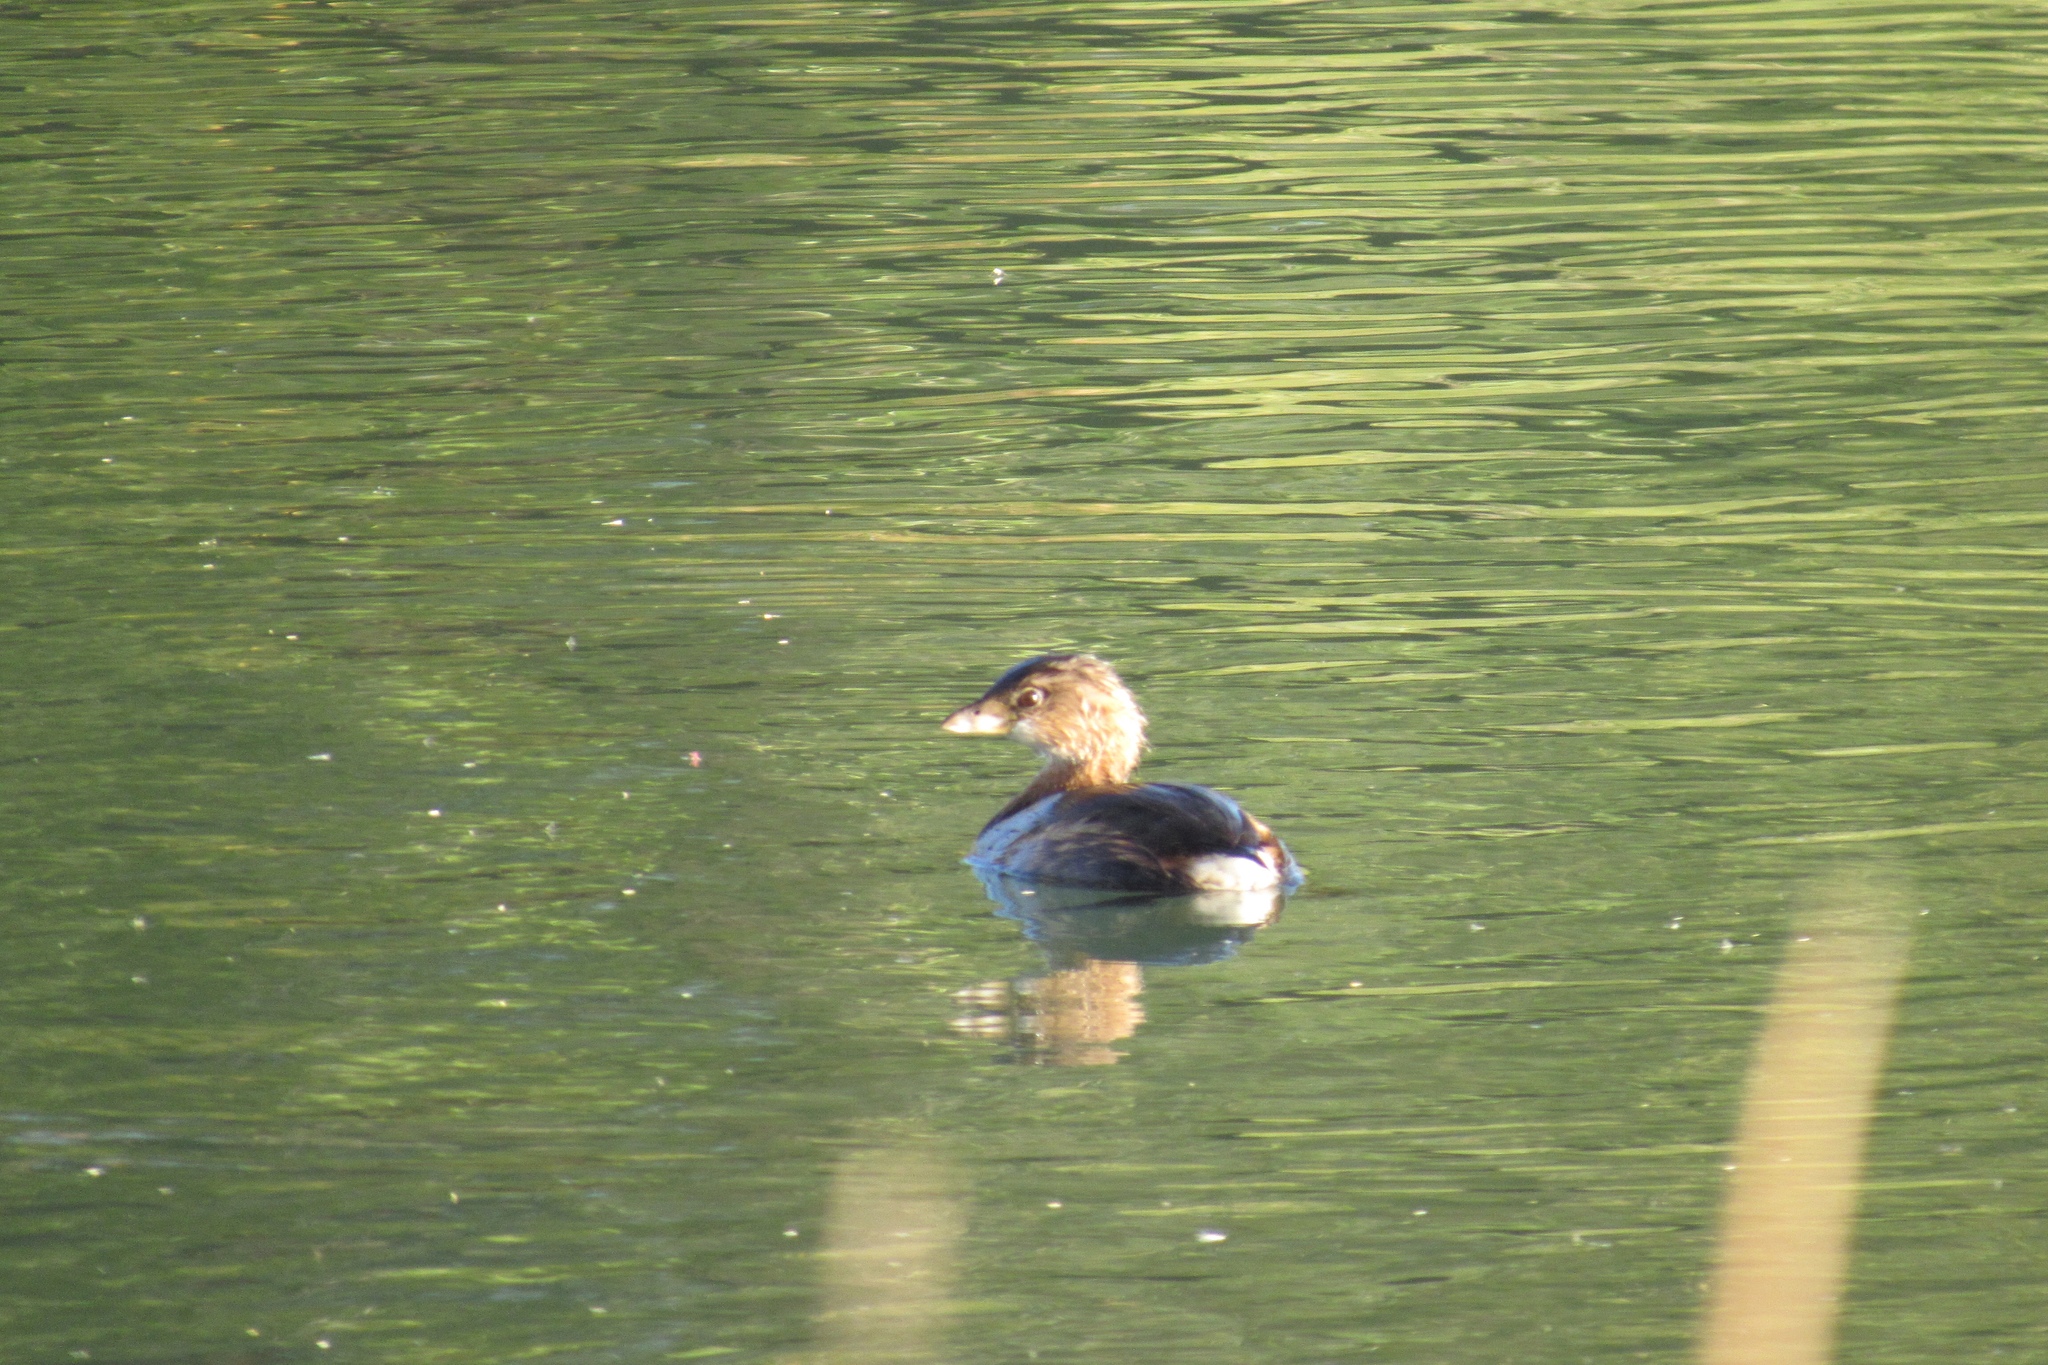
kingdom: Animalia
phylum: Chordata
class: Aves
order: Podicipediformes
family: Podicipedidae
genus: Podilymbus
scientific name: Podilymbus podiceps
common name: Pied-billed grebe
